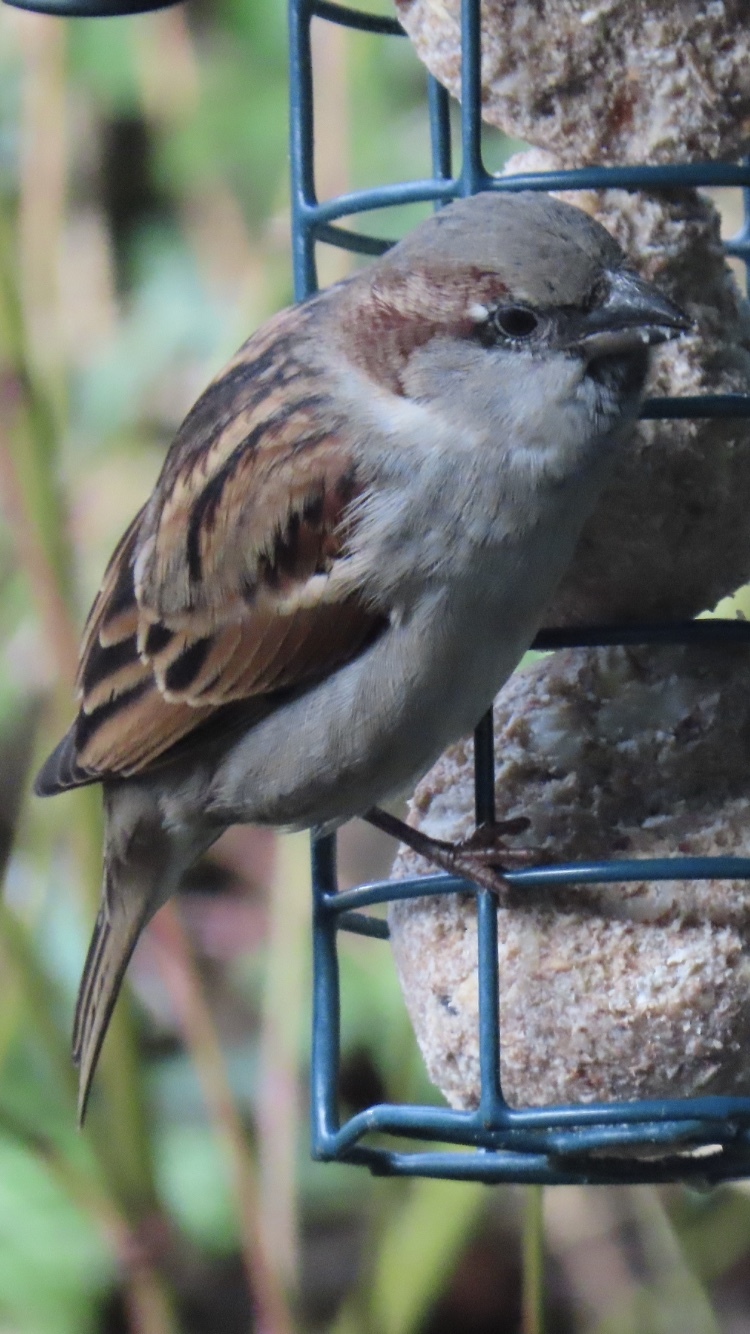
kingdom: Animalia
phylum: Chordata
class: Aves
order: Passeriformes
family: Passeridae
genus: Passer
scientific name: Passer domesticus
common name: House sparrow
